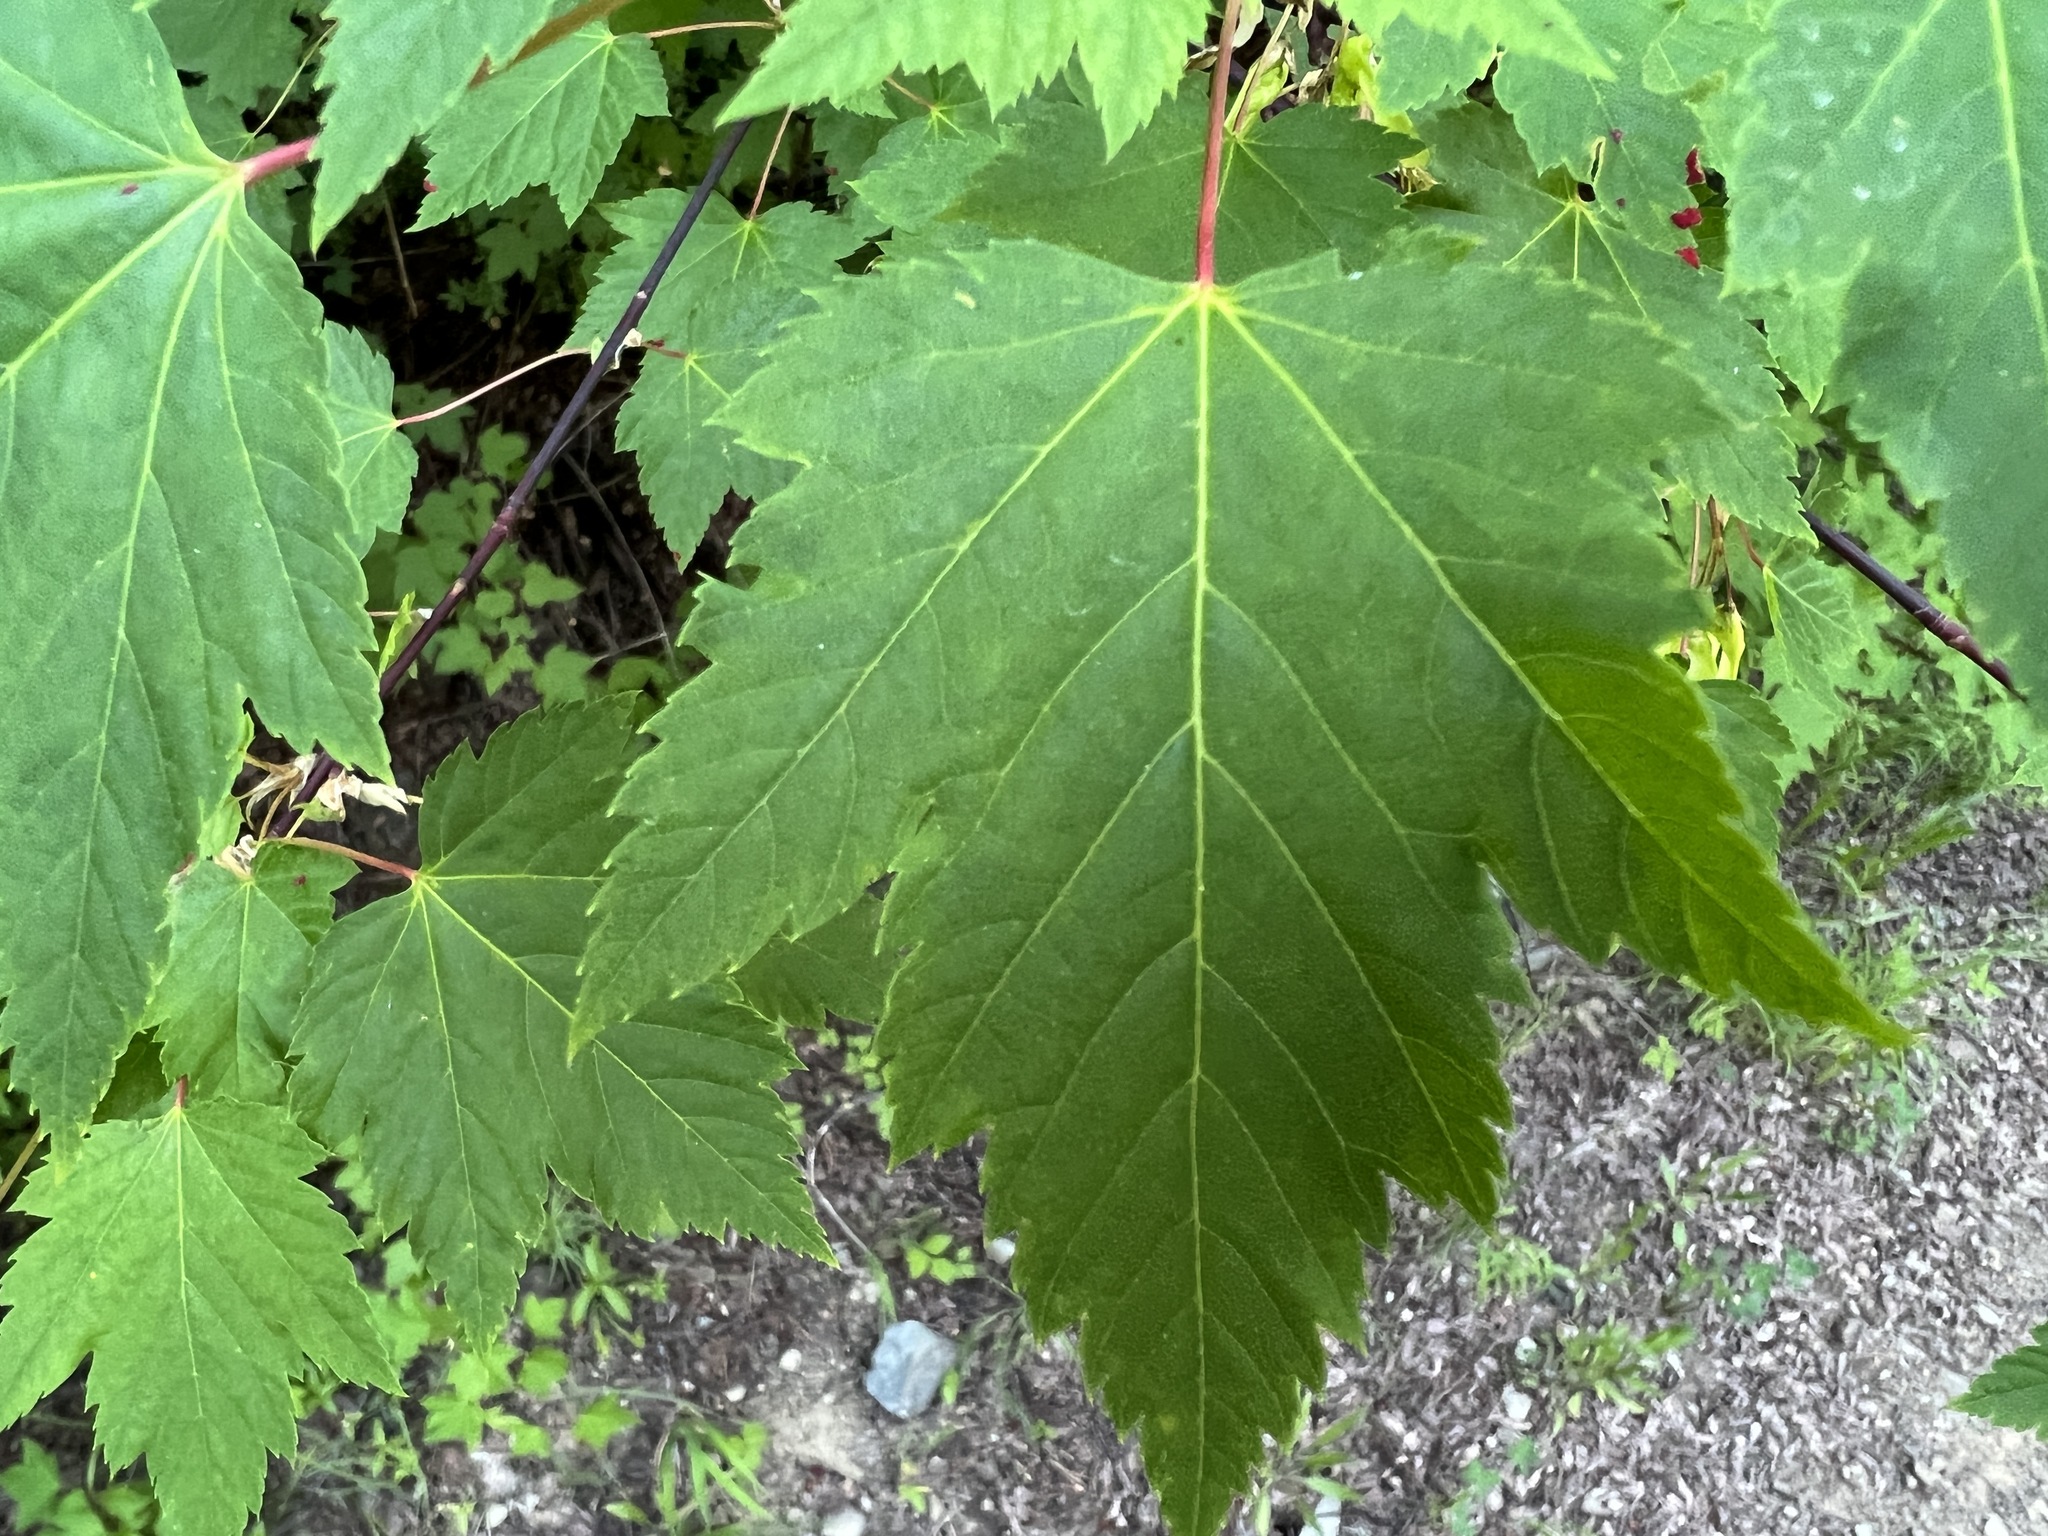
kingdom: Plantae
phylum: Tracheophyta
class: Magnoliopsida
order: Sapindales
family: Sapindaceae
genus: Acer
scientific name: Acer glabrum
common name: Rocky mountain maple
